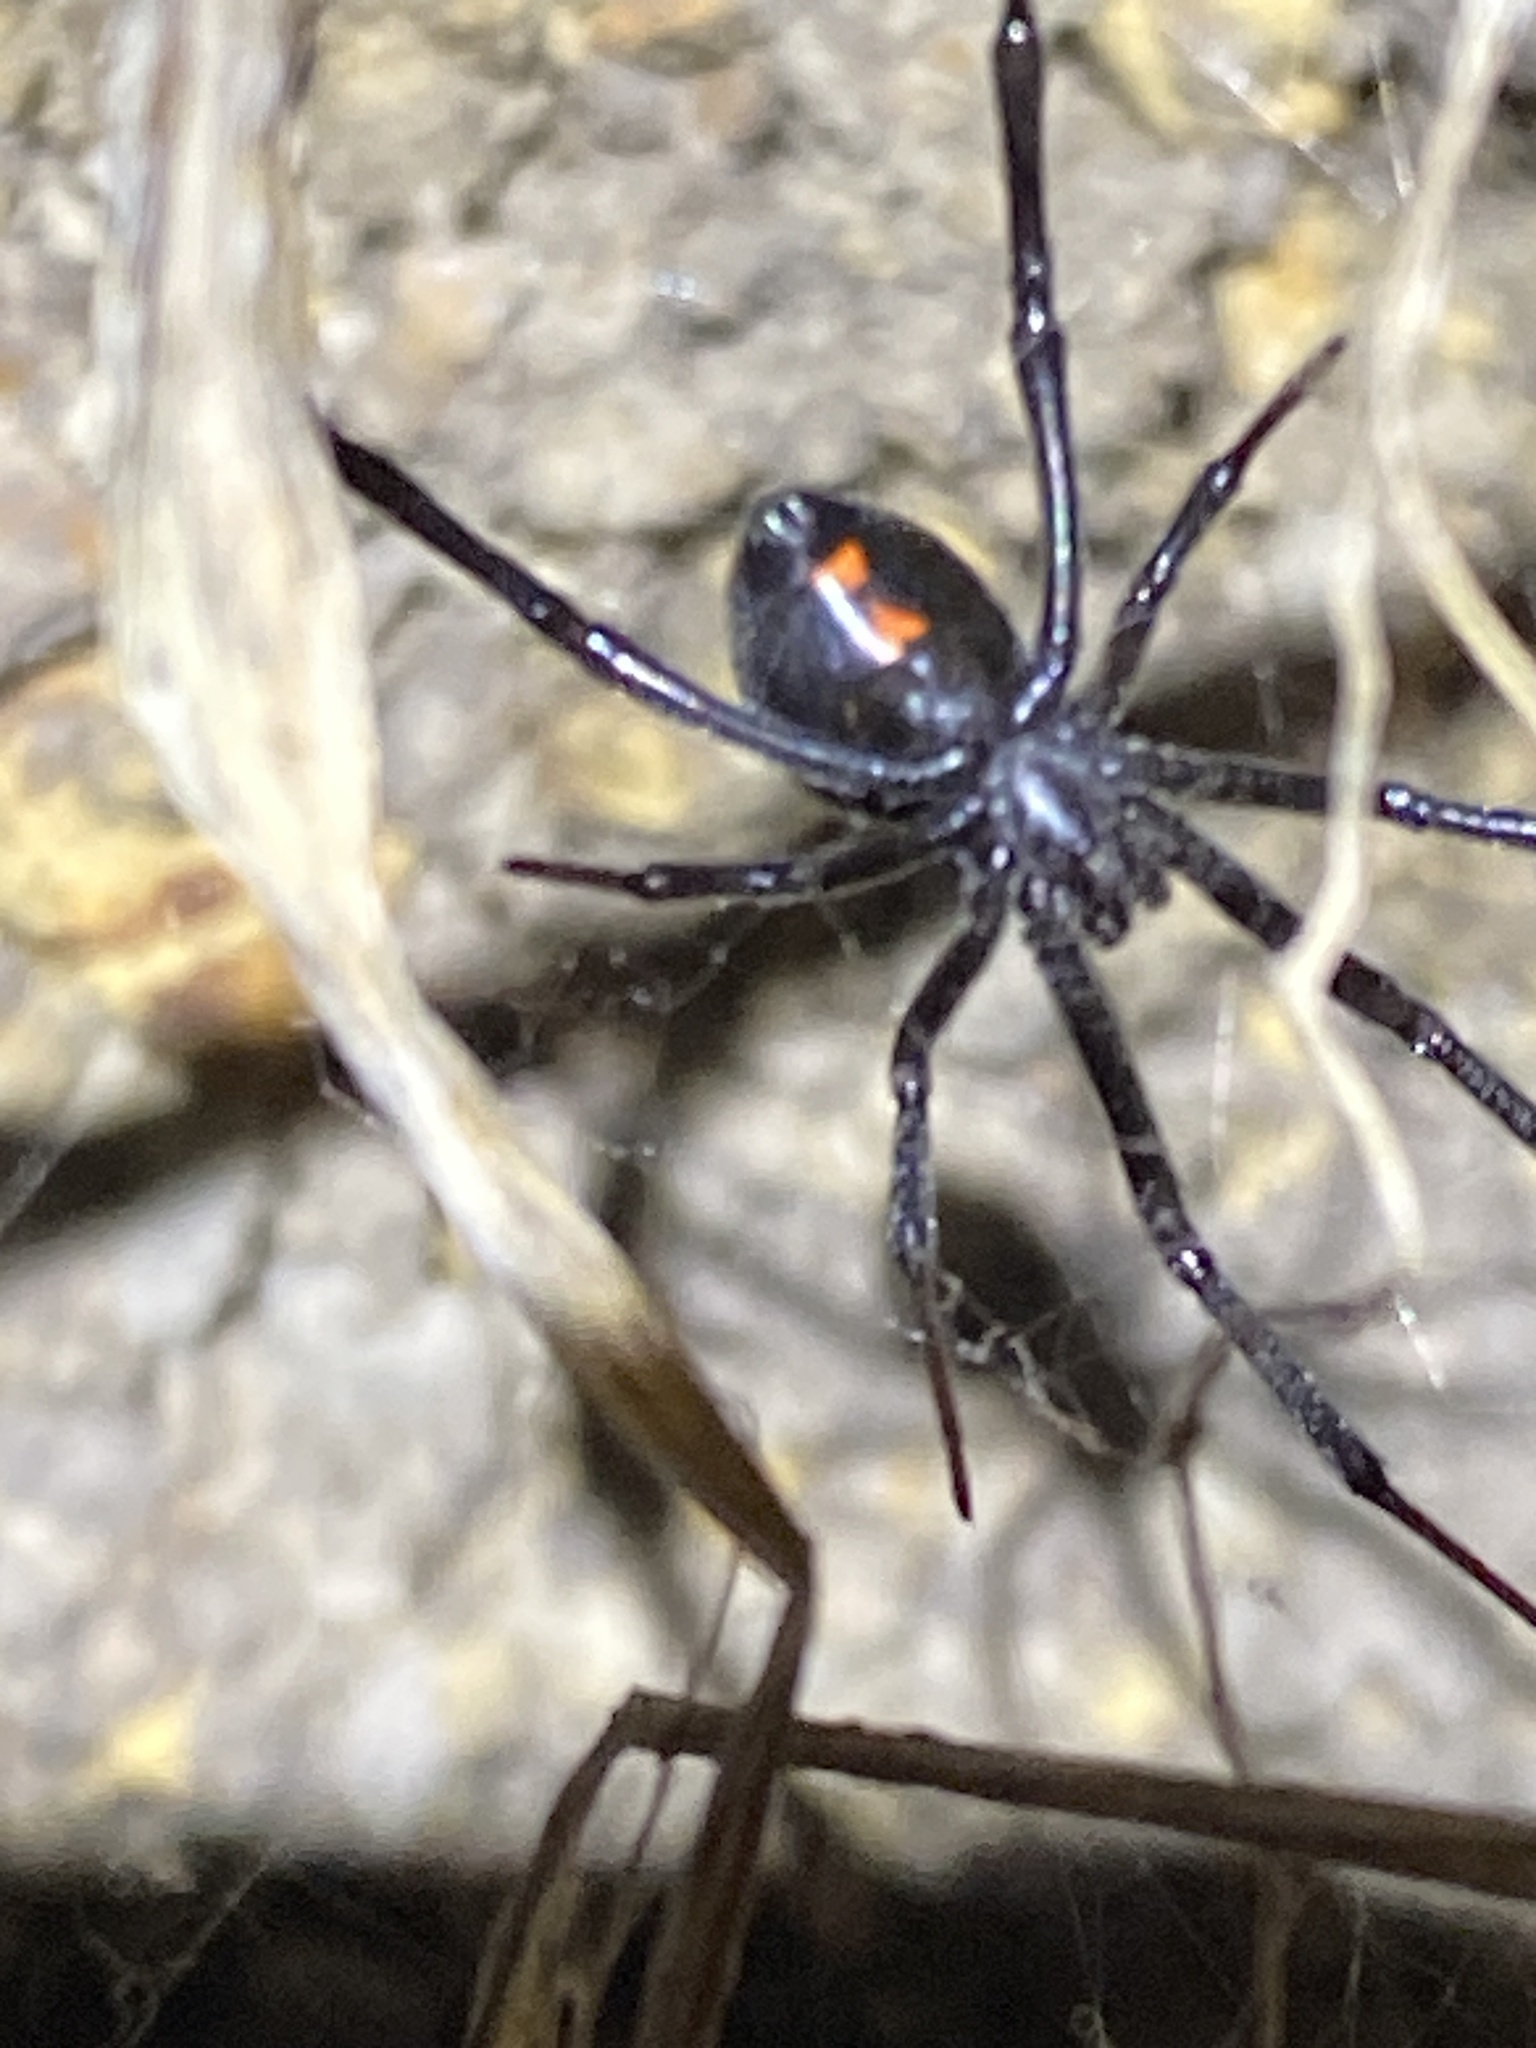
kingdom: Animalia
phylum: Arthropoda
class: Arachnida
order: Araneae
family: Theridiidae
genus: Latrodectus
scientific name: Latrodectus hesperus
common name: Western black widow
